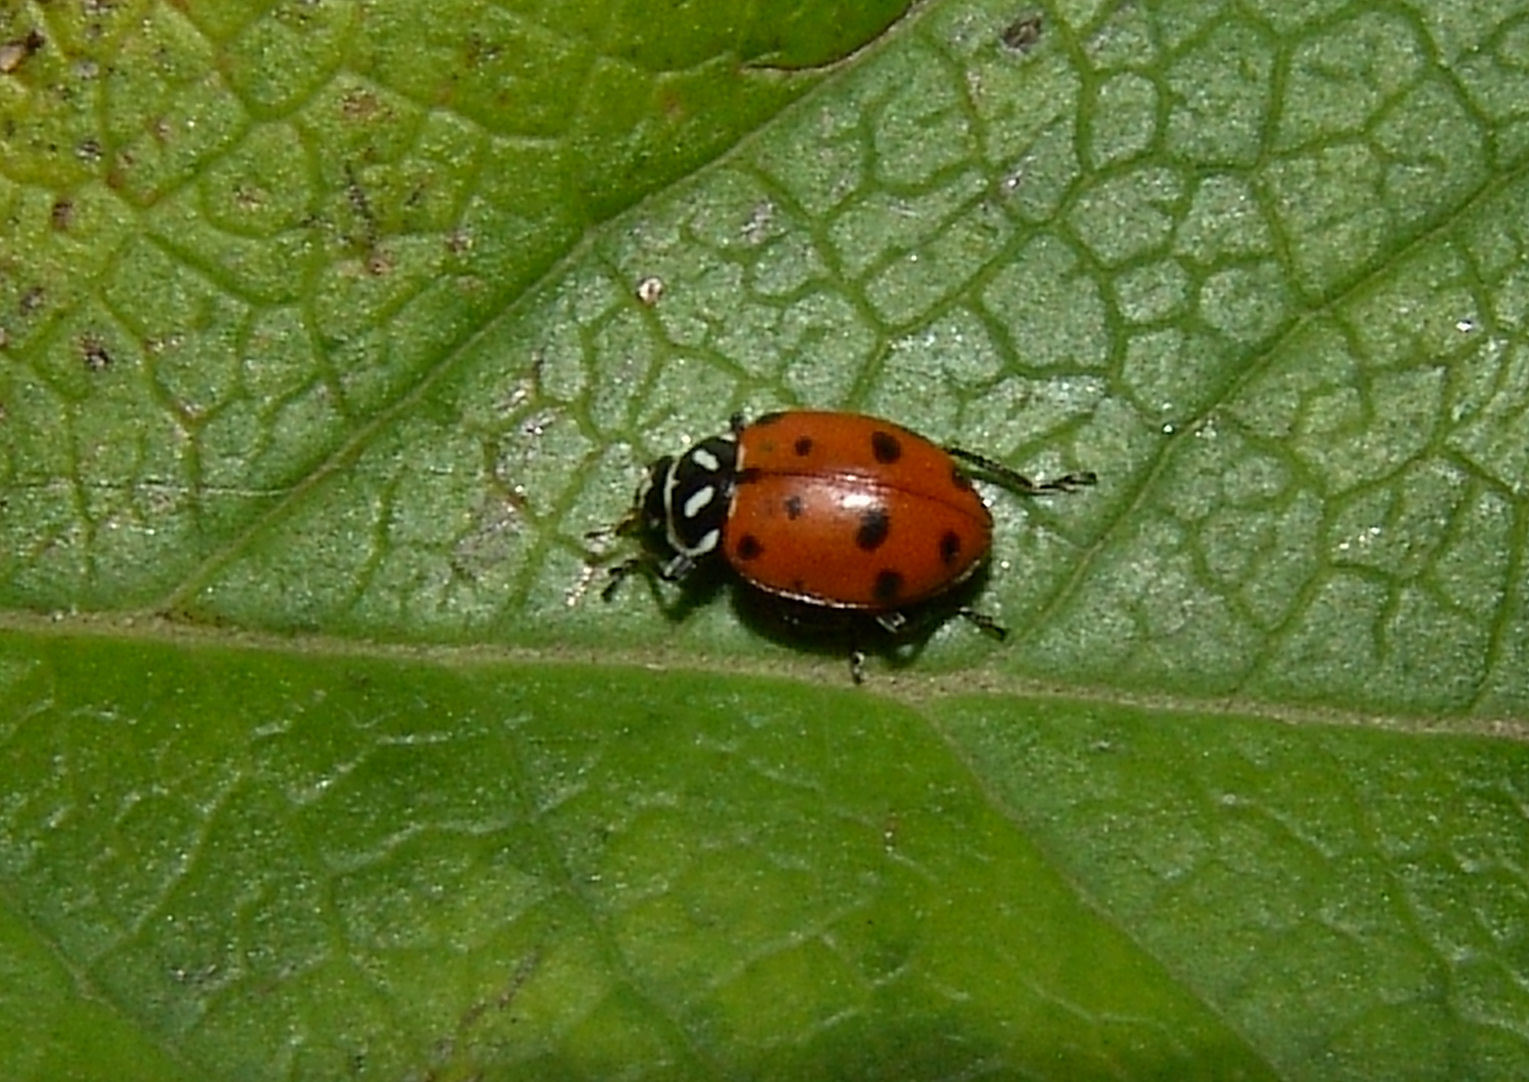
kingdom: Animalia
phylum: Arthropoda
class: Insecta
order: Coleoptera
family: Coccinellidae
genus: Hippodamia
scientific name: Hippodamia convergens
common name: Convergent lady beetle
